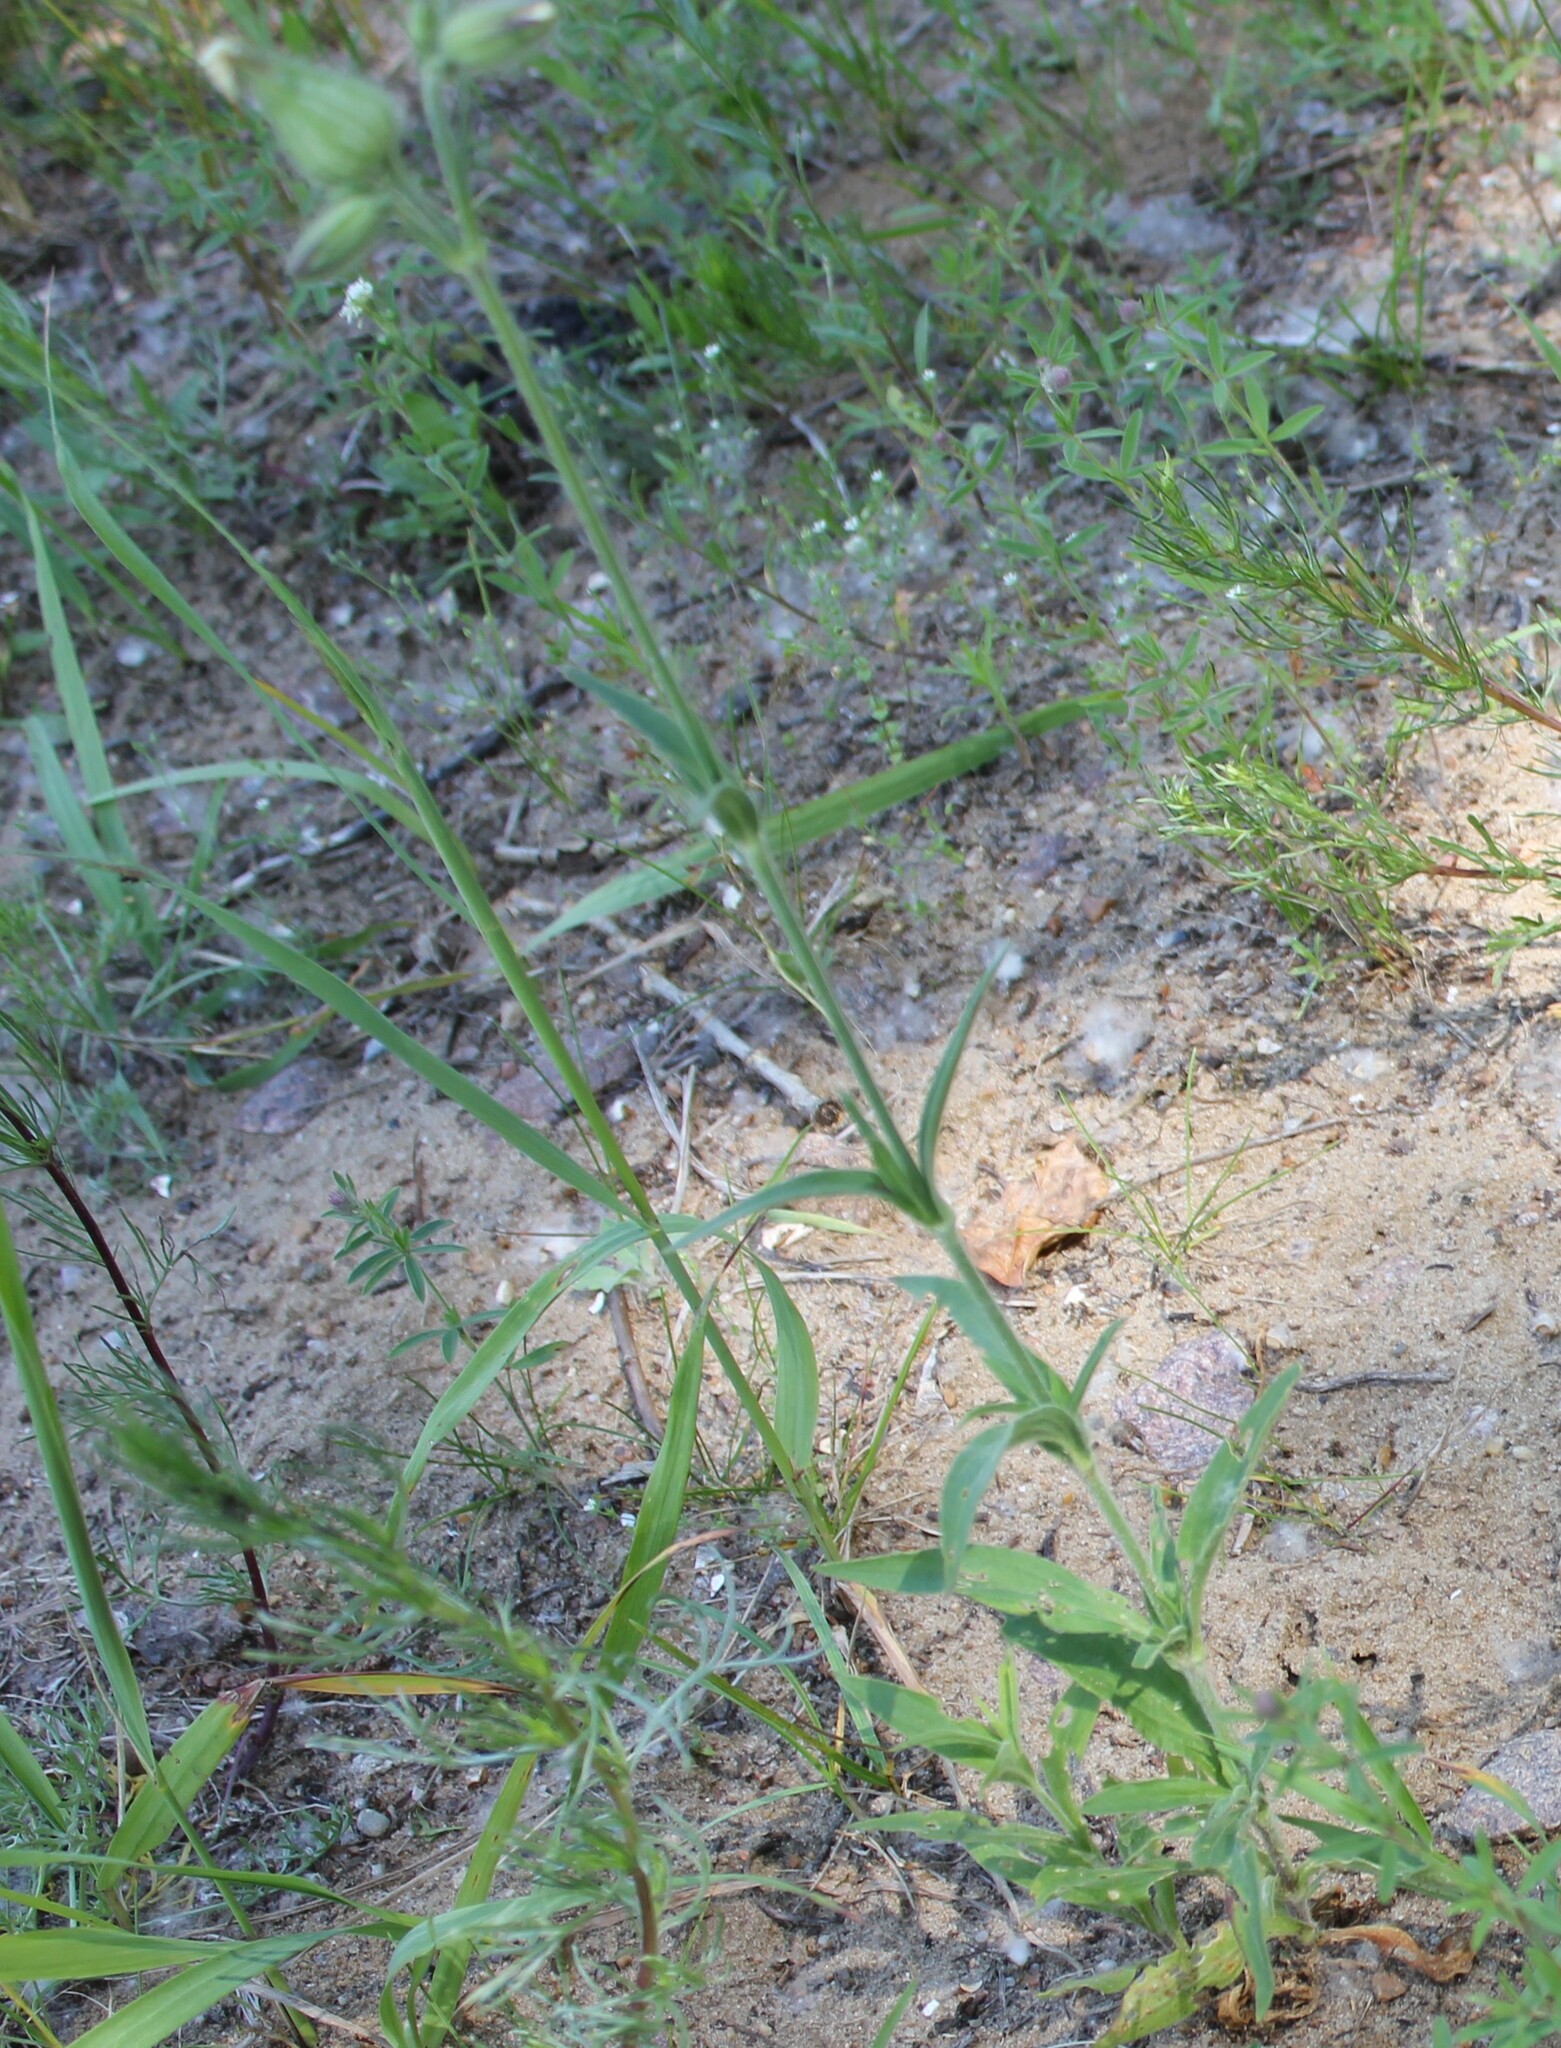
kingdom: Plantae
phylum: Tracheophyta
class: Magnoliopsida
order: Caryophyllales
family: Caryophyllaceae
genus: Silene
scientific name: Silene latifolia
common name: White campion
